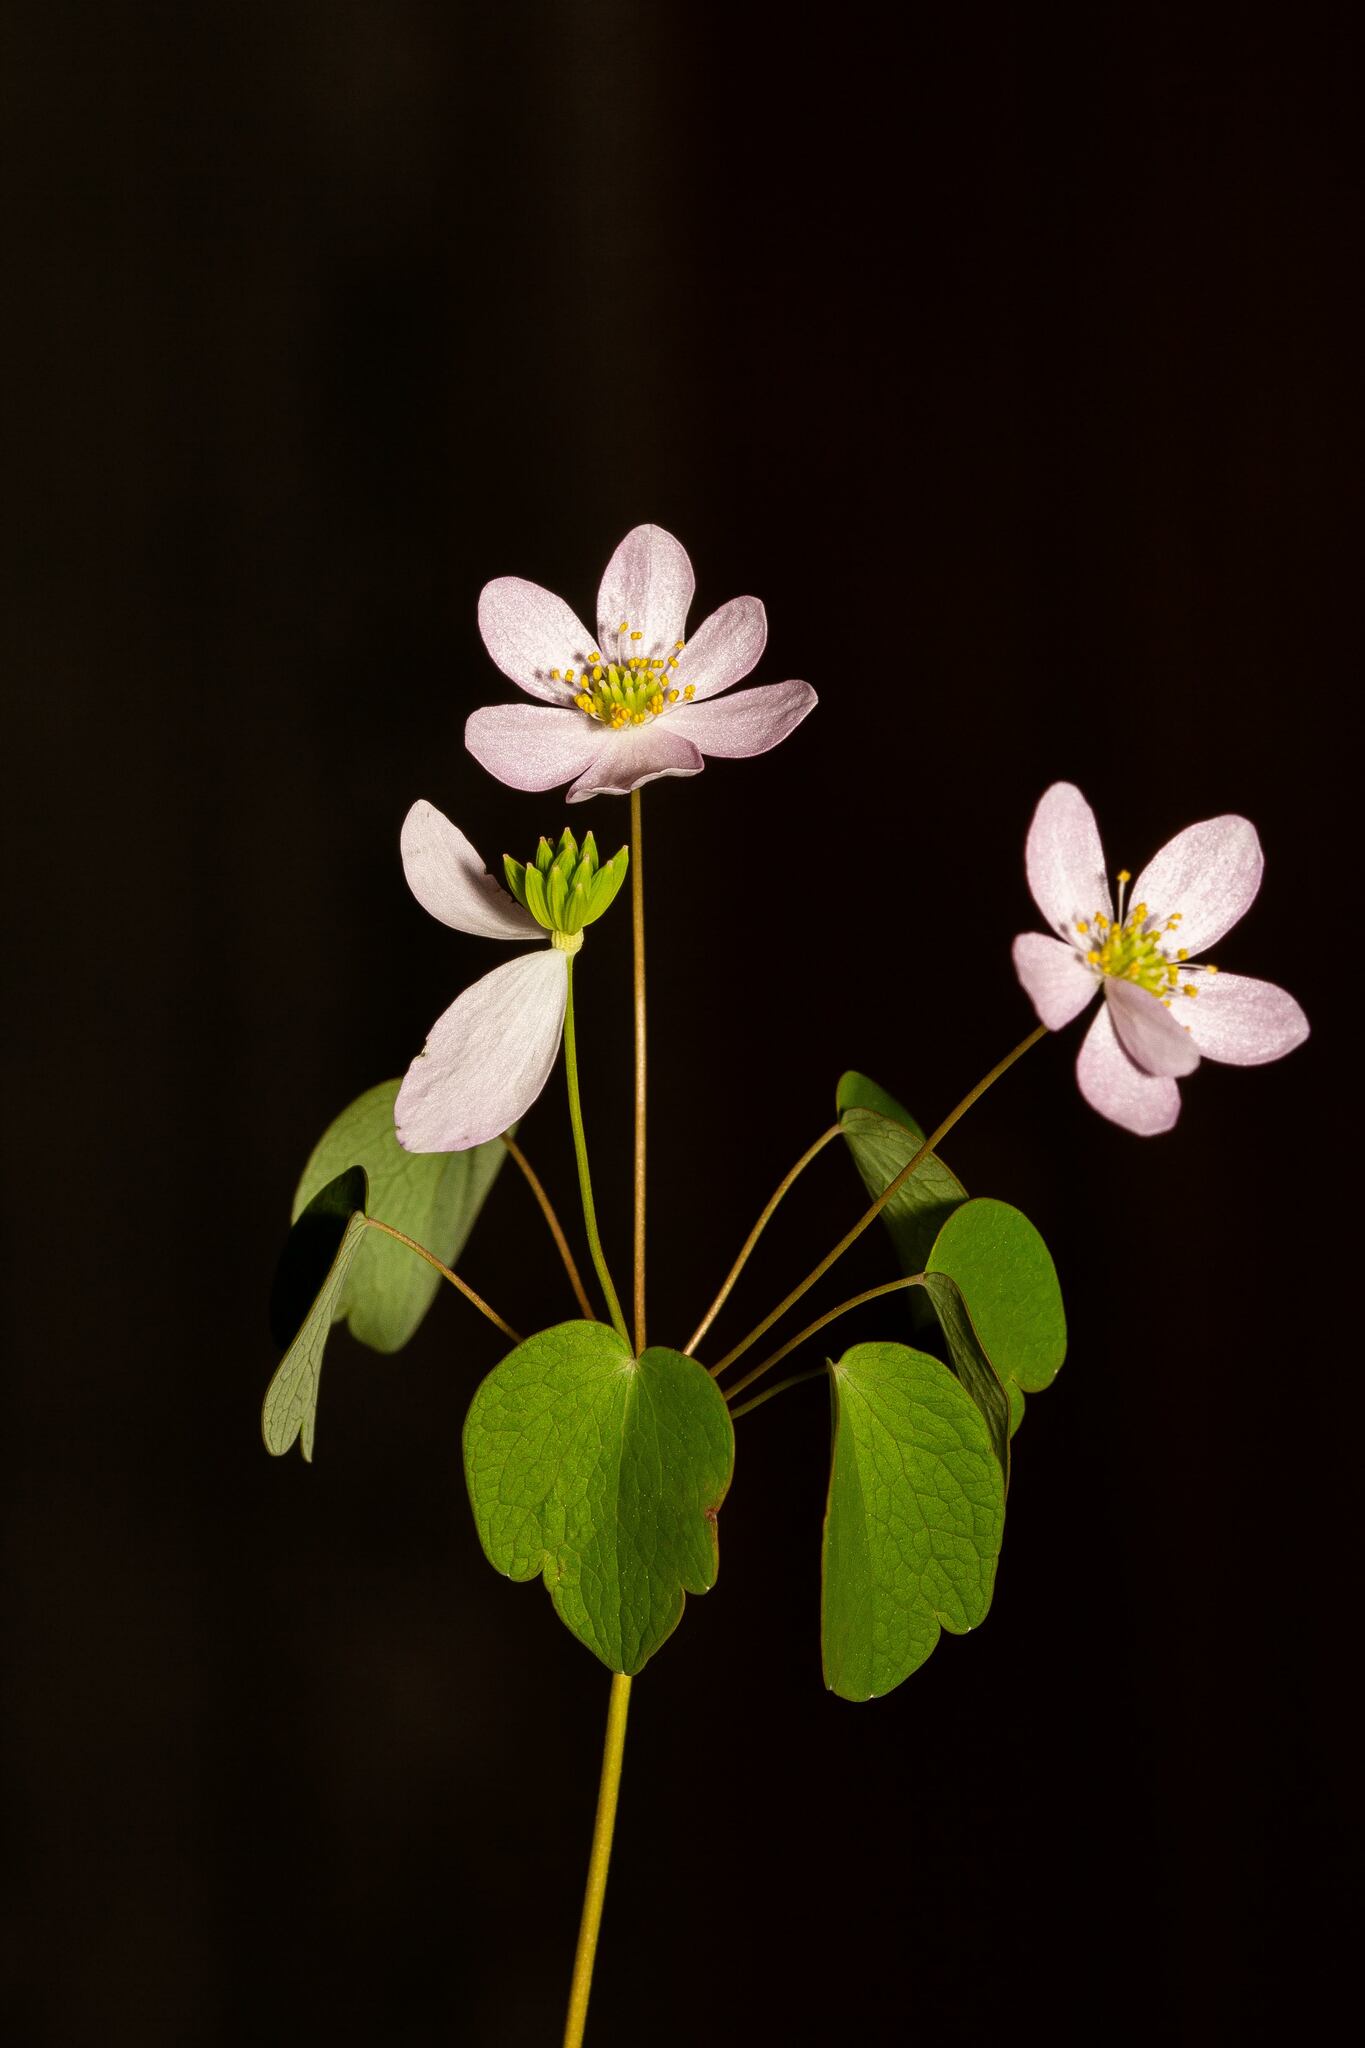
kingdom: Plantae
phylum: Tracheophyta
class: Magnoliopsida
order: Ranunculales
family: Ranunculaceae
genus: Thalictrum
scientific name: Thalictrum thalictroides
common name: Rue-anemone
